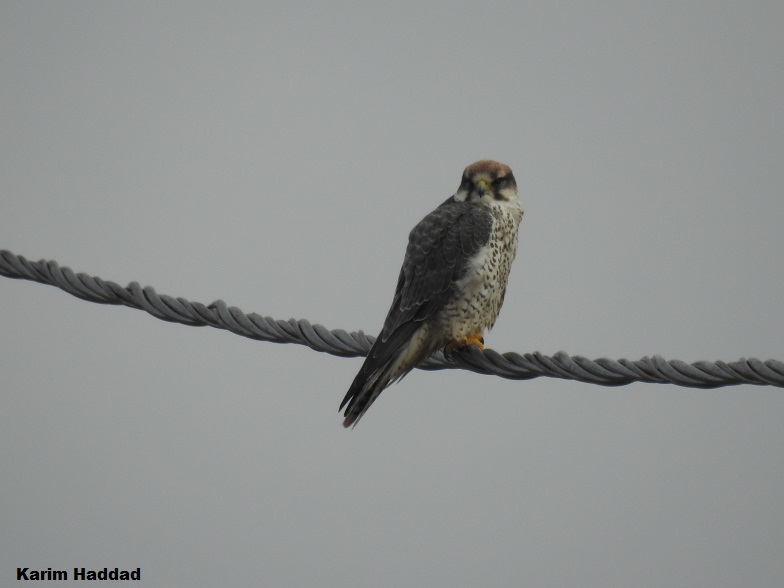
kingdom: Animalia
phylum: Chordata
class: Aves
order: Falconiformes
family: Falconidae
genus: Falco
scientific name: Falco biarmicus
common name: Lanner falcon
